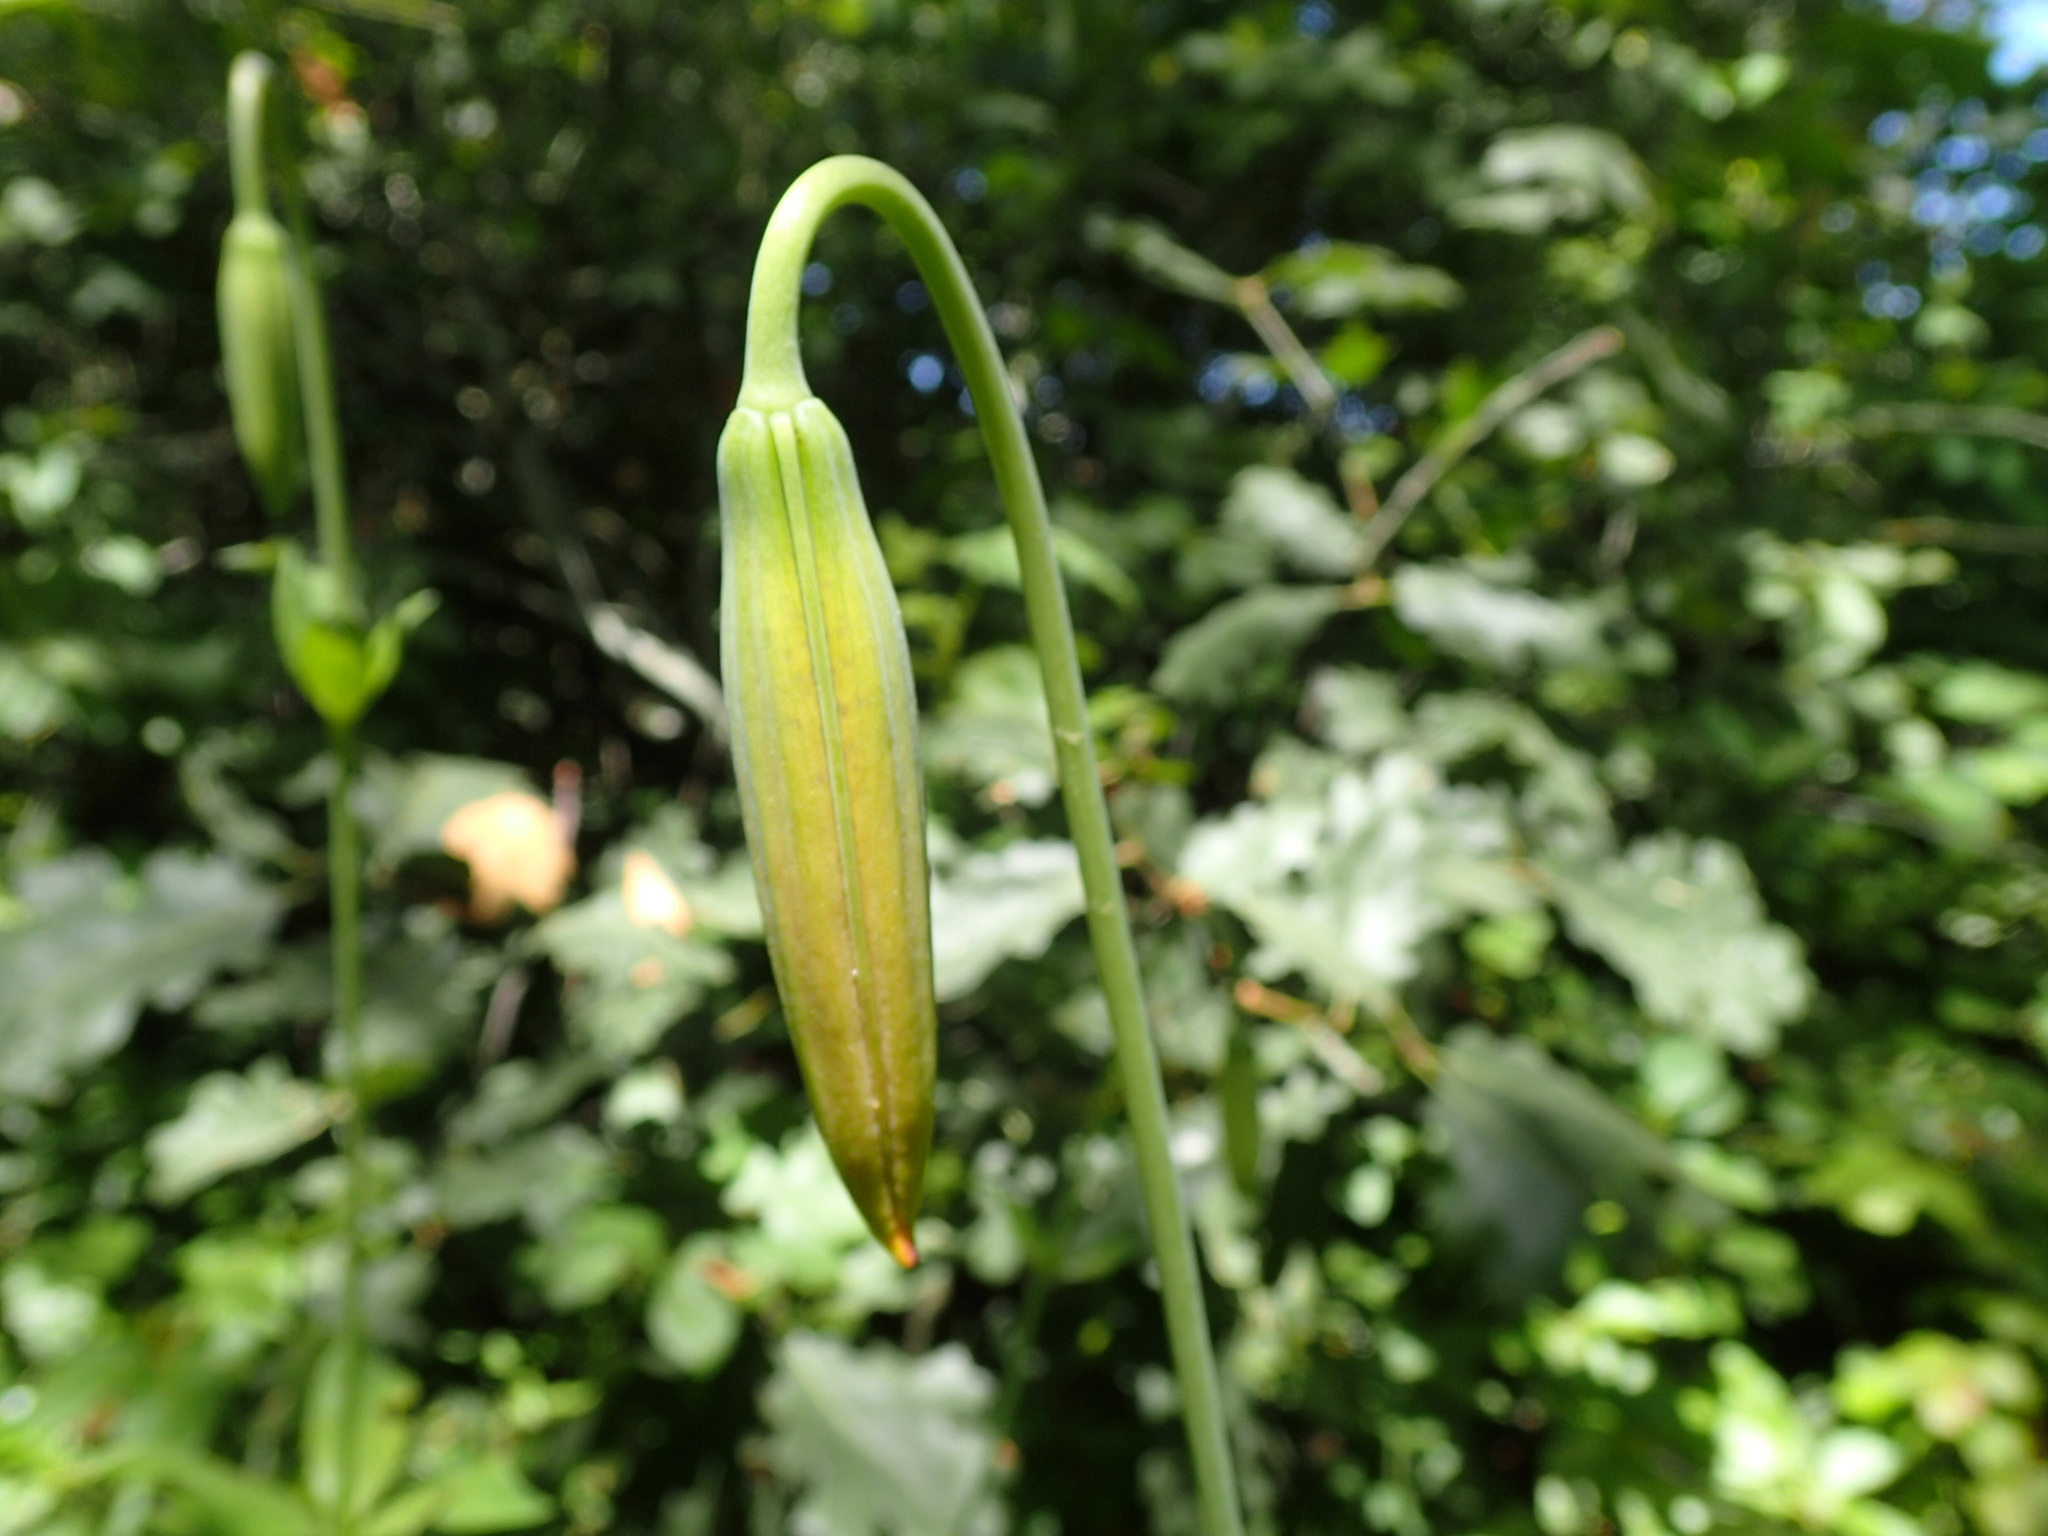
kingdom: Plantae
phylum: Tracheophyta
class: Liliopsida
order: Liliales
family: Liliaceae
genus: Lilium
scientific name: Lilium pardalinum
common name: Panther lily
